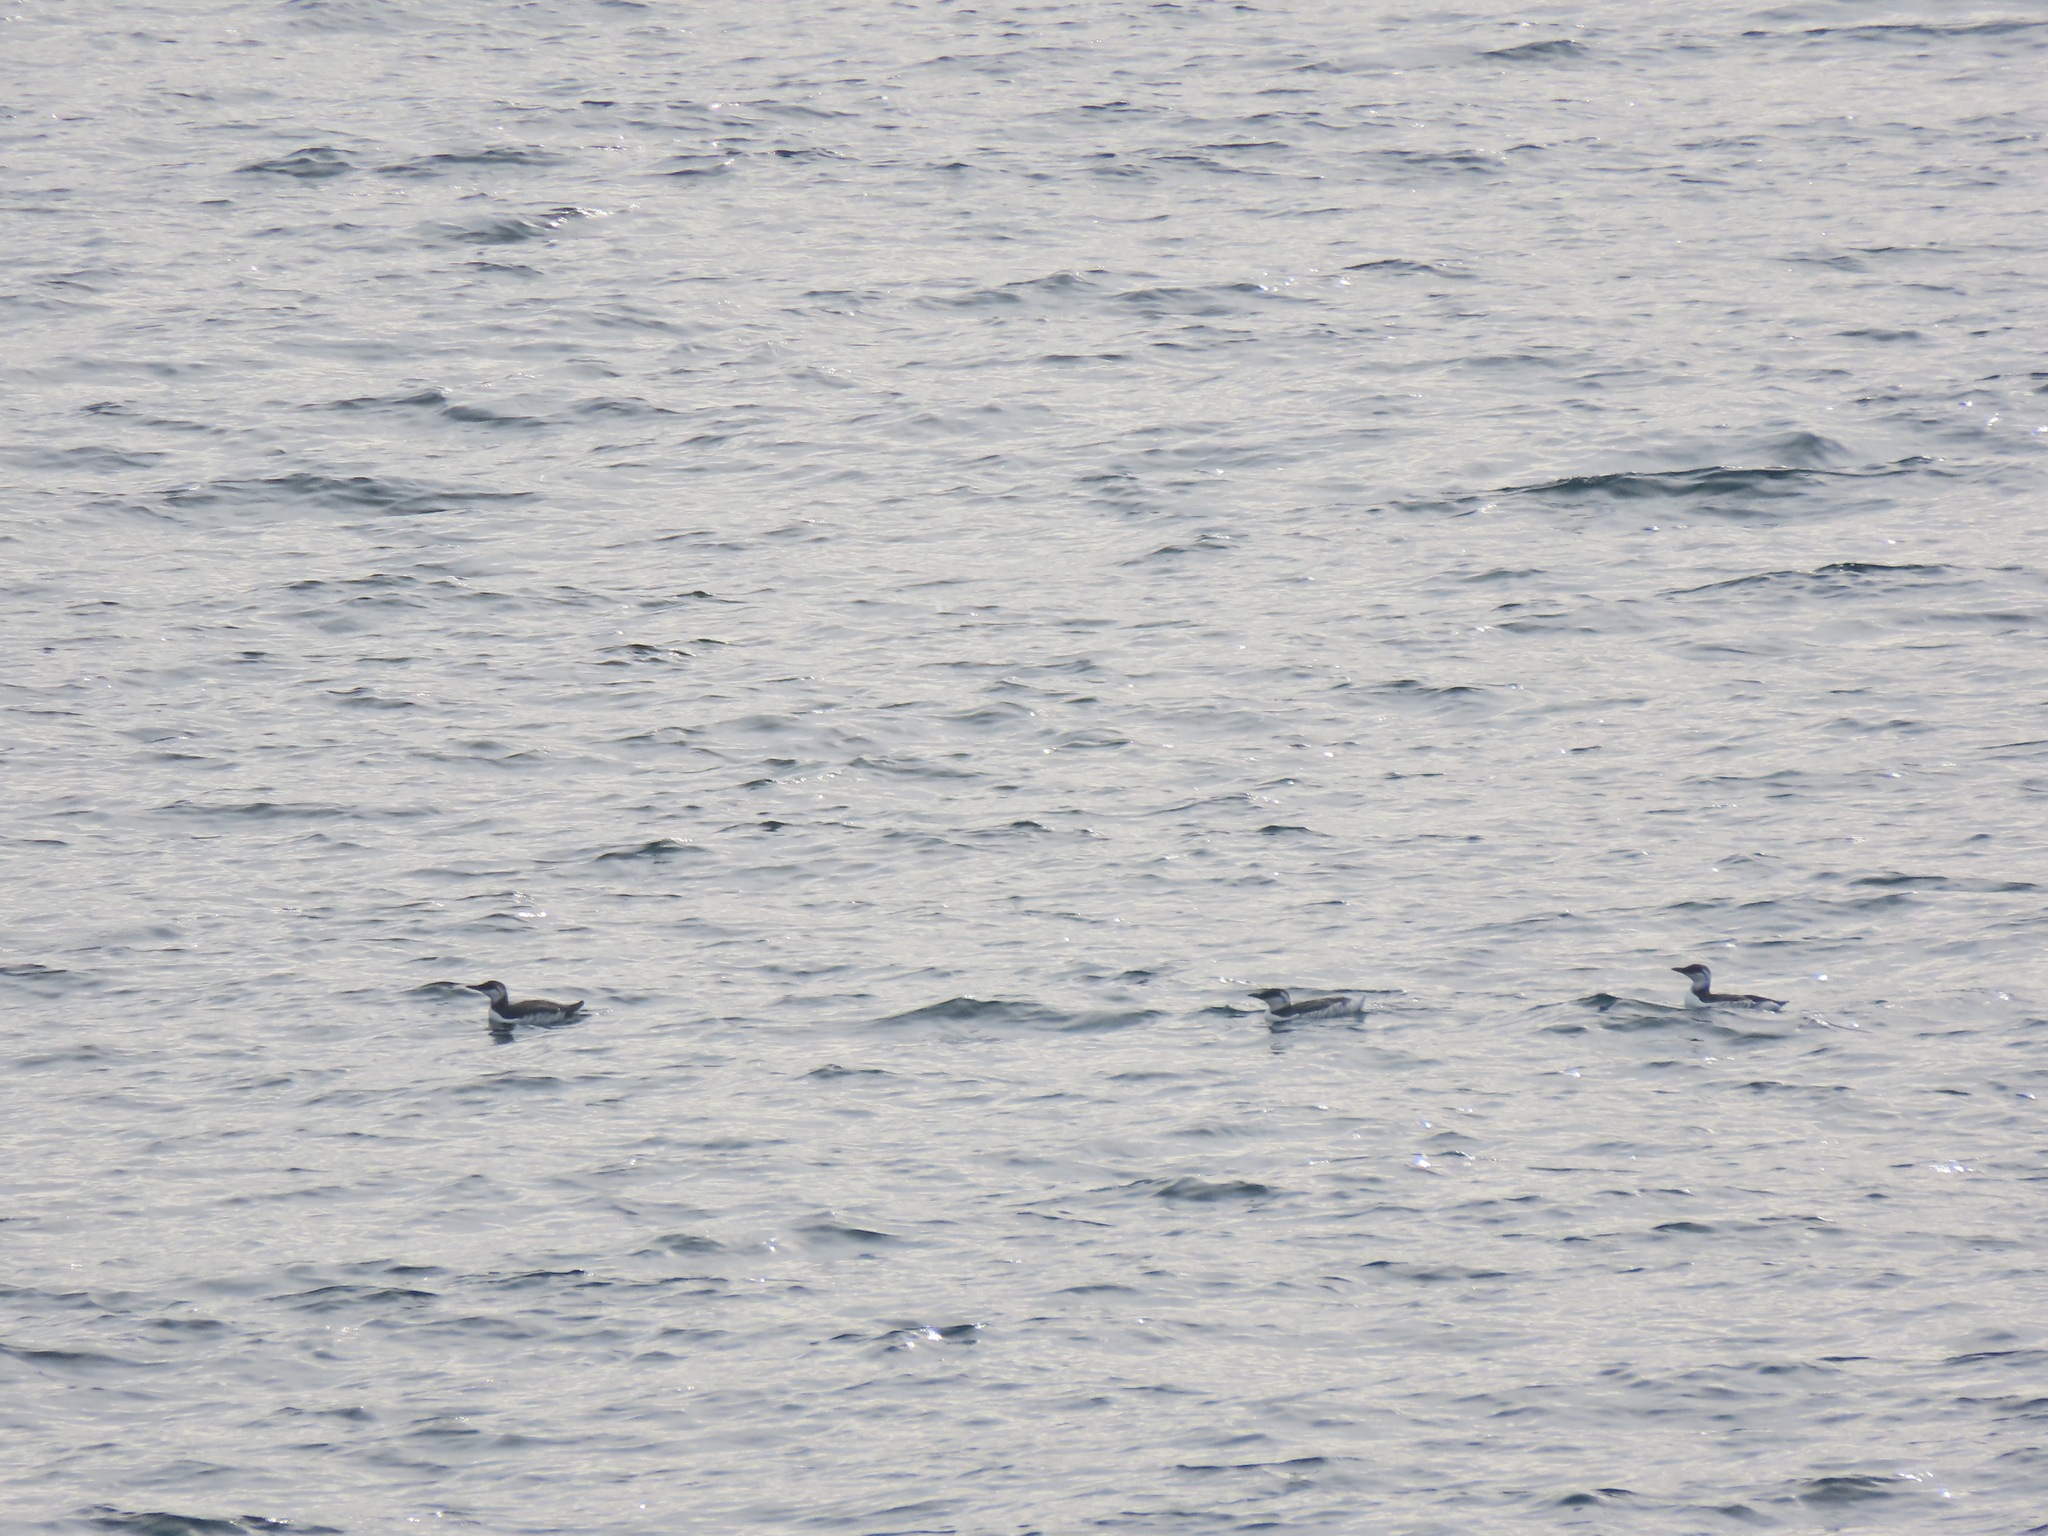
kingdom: Animalia
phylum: Chordata
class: Aves
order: Charadriiformes
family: Alcidae
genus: Uria
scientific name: Uria aalge
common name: Common murre
